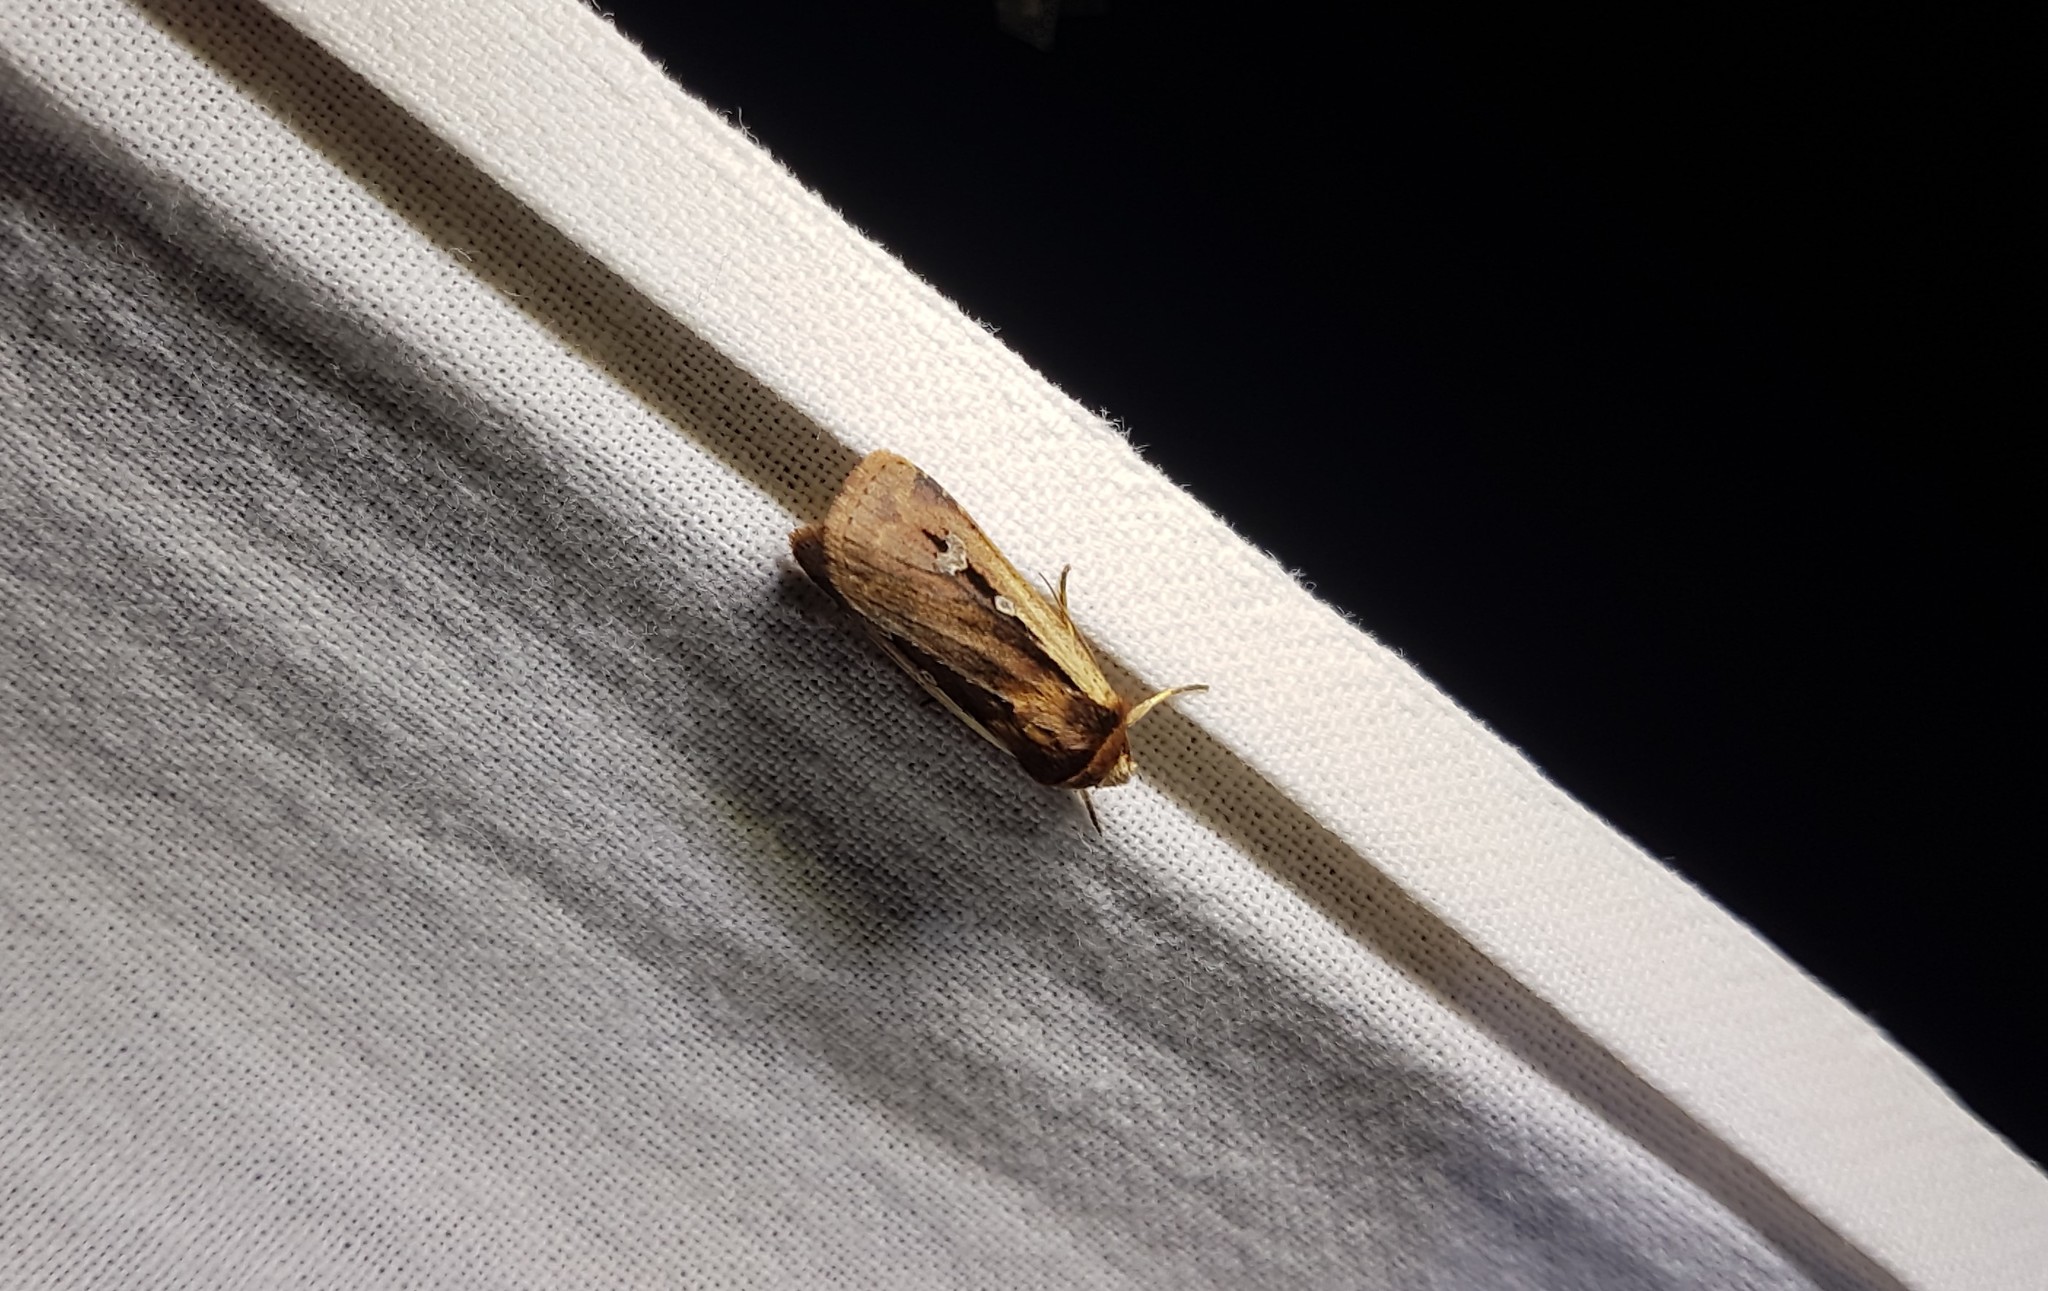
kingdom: Animalia
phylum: Arthropoda
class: Insecta
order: Lepidoptera
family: Noctuidae
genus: Ochropleura
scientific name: Ochropleura plecta
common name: Flame shoulder
